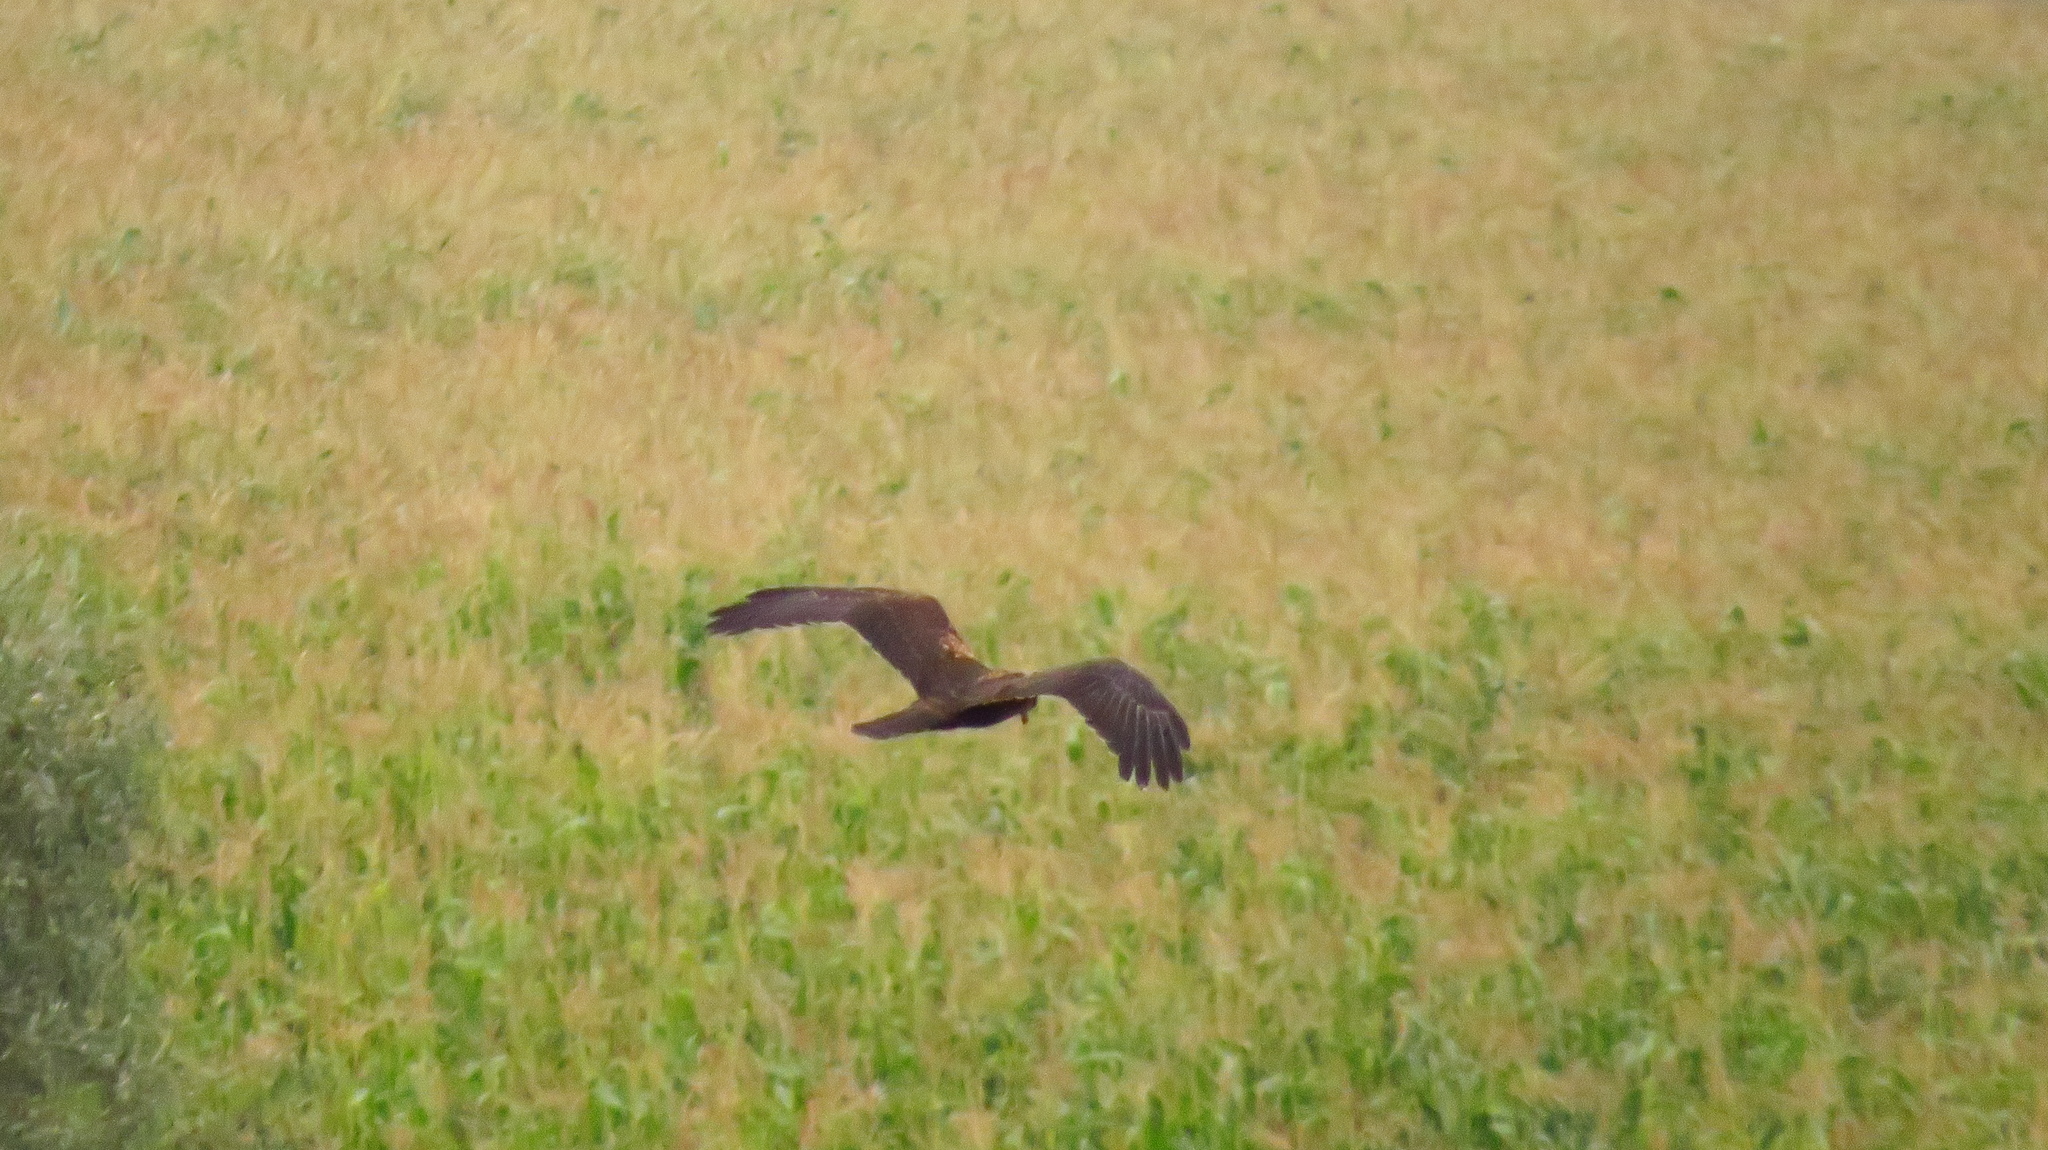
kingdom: Animalia
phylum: Chordata
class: Aves
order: Accipitriformes
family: Accipitridae
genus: Circus
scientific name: Circus aeruginosus
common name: Western marsh harrier
